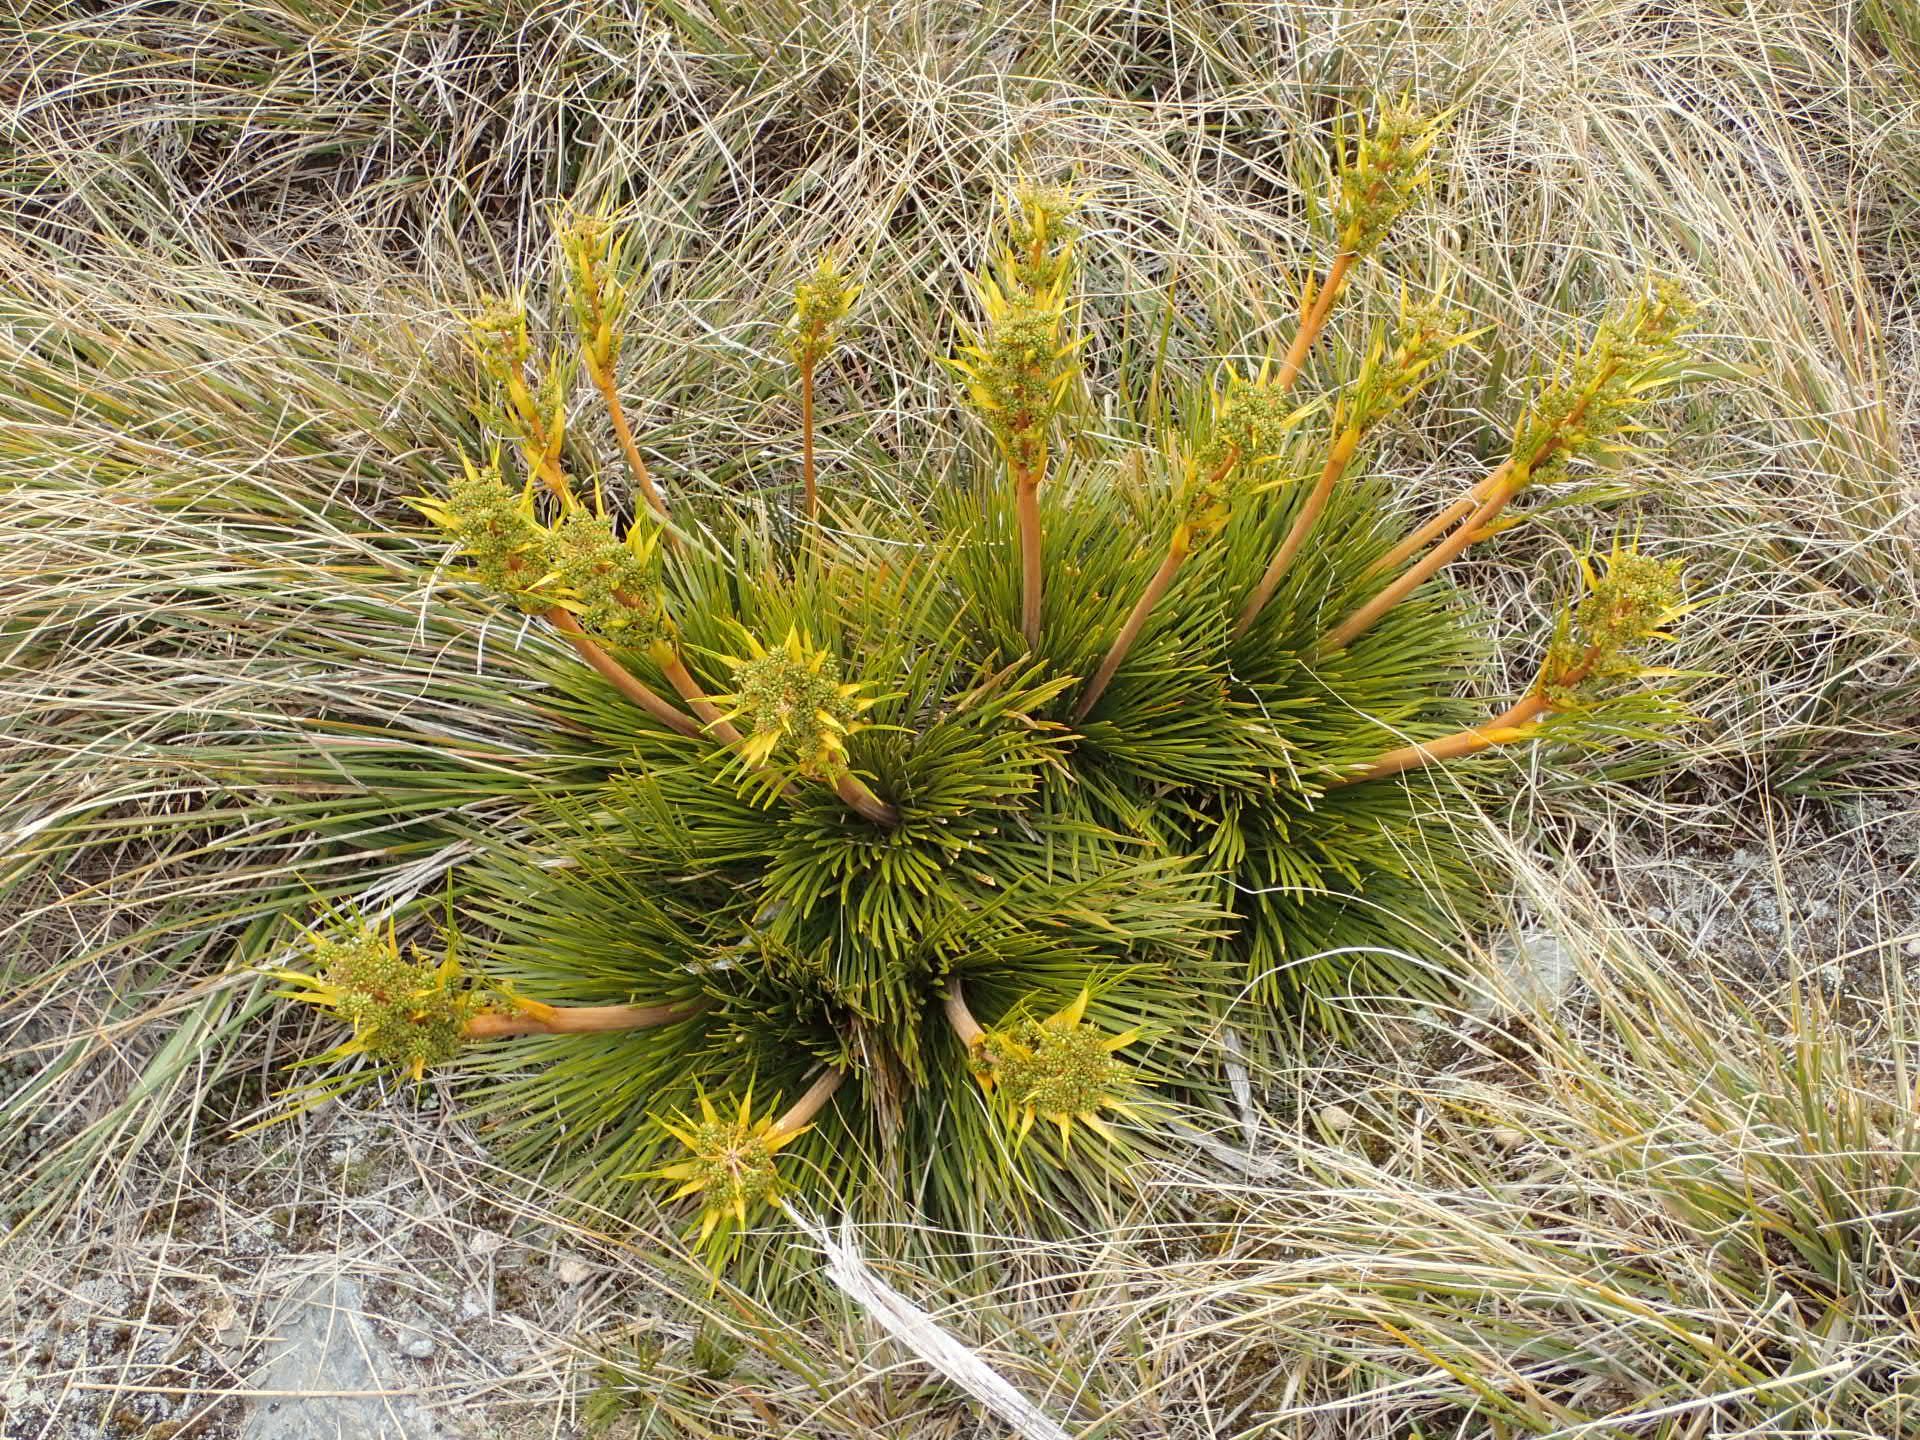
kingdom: Plantae
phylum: Tracheophyta
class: Magnoliopsida
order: Apiales
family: Apiaceae
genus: Aciphylla
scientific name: Aciphylla montana
